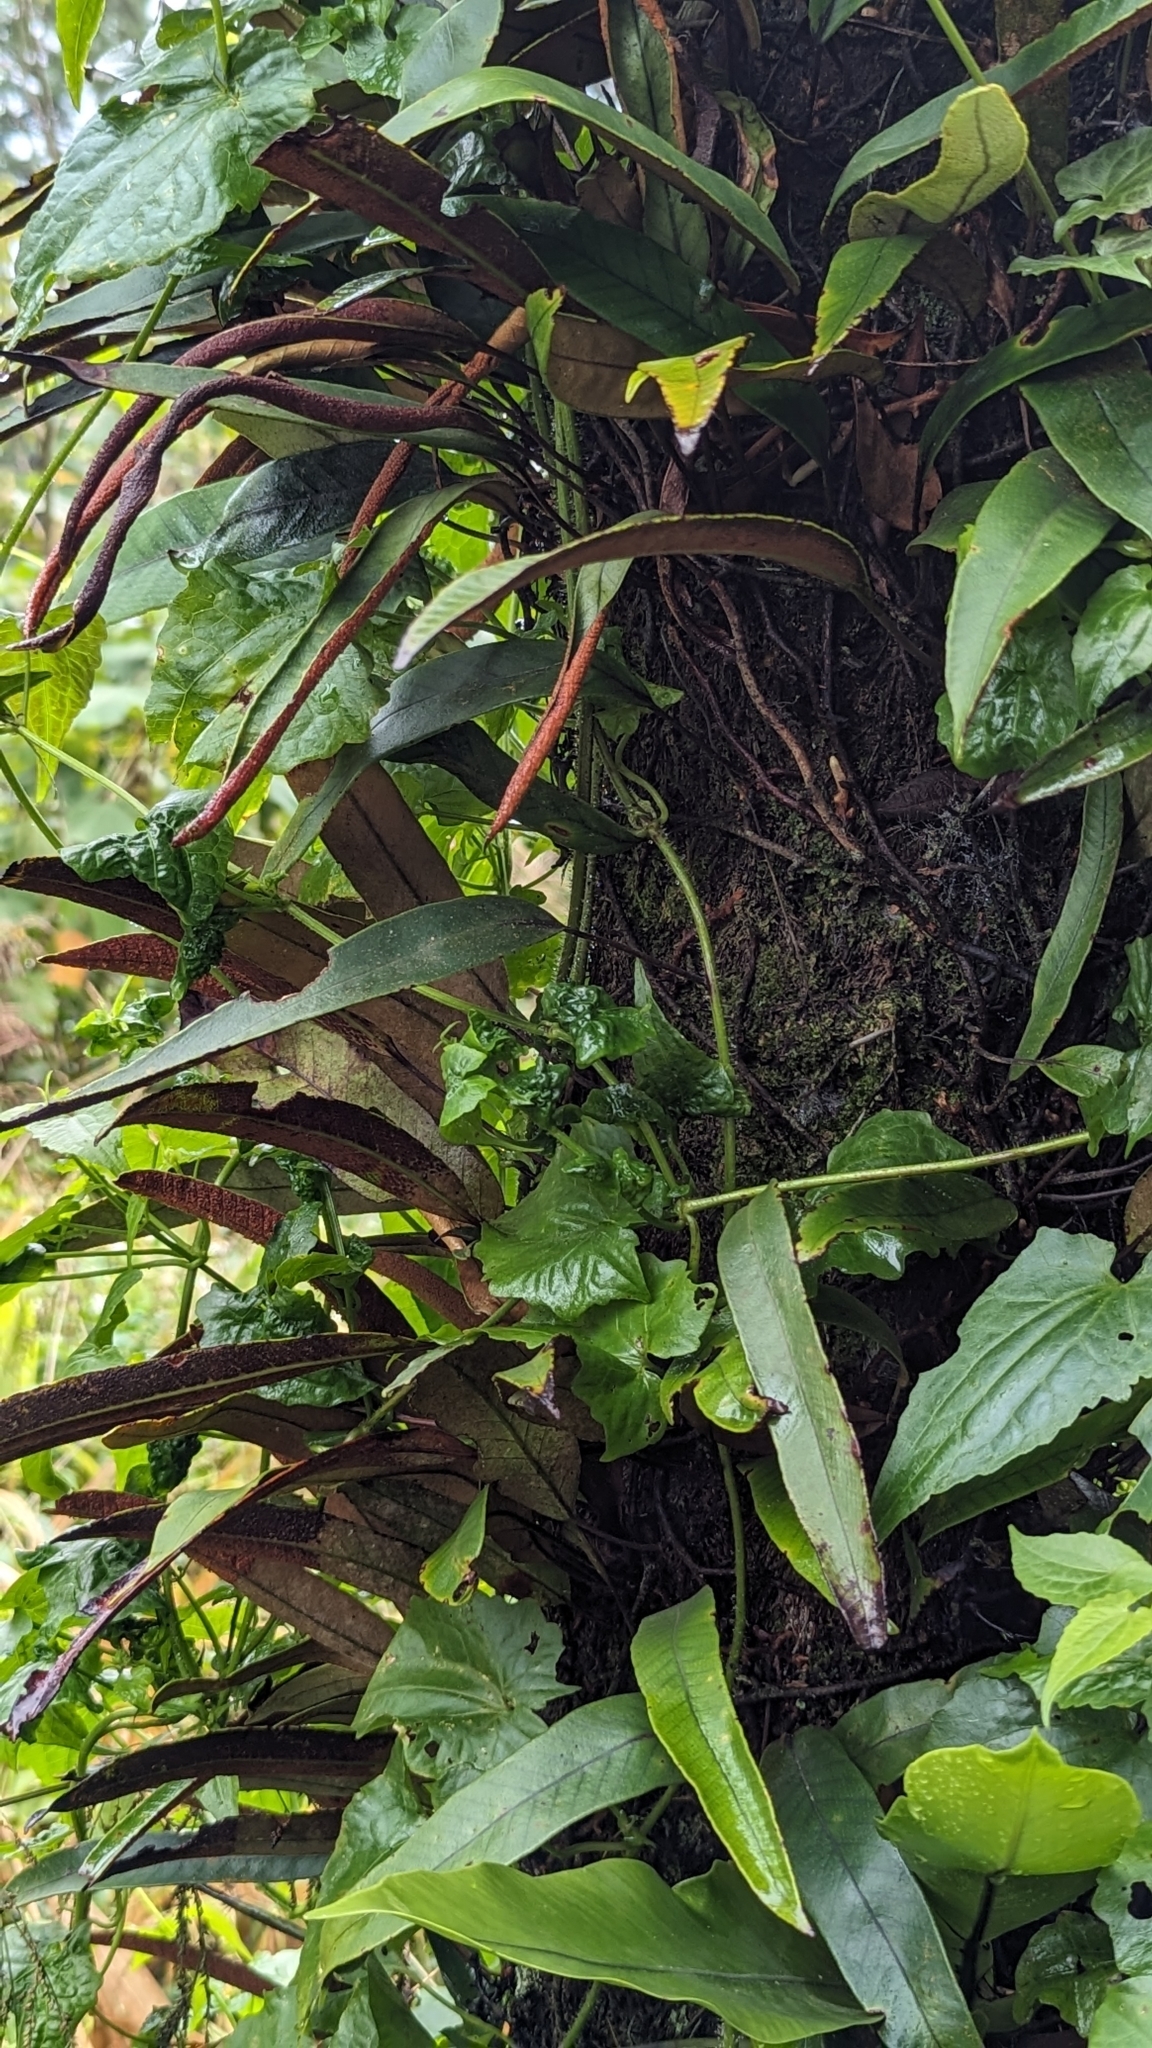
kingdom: Plantae
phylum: Tracheophyta
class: Polypodiopsida
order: Polypodiales
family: Polypodiaceae
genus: Pyrrosia
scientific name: Pyrrosia lingua
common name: Felt fern
